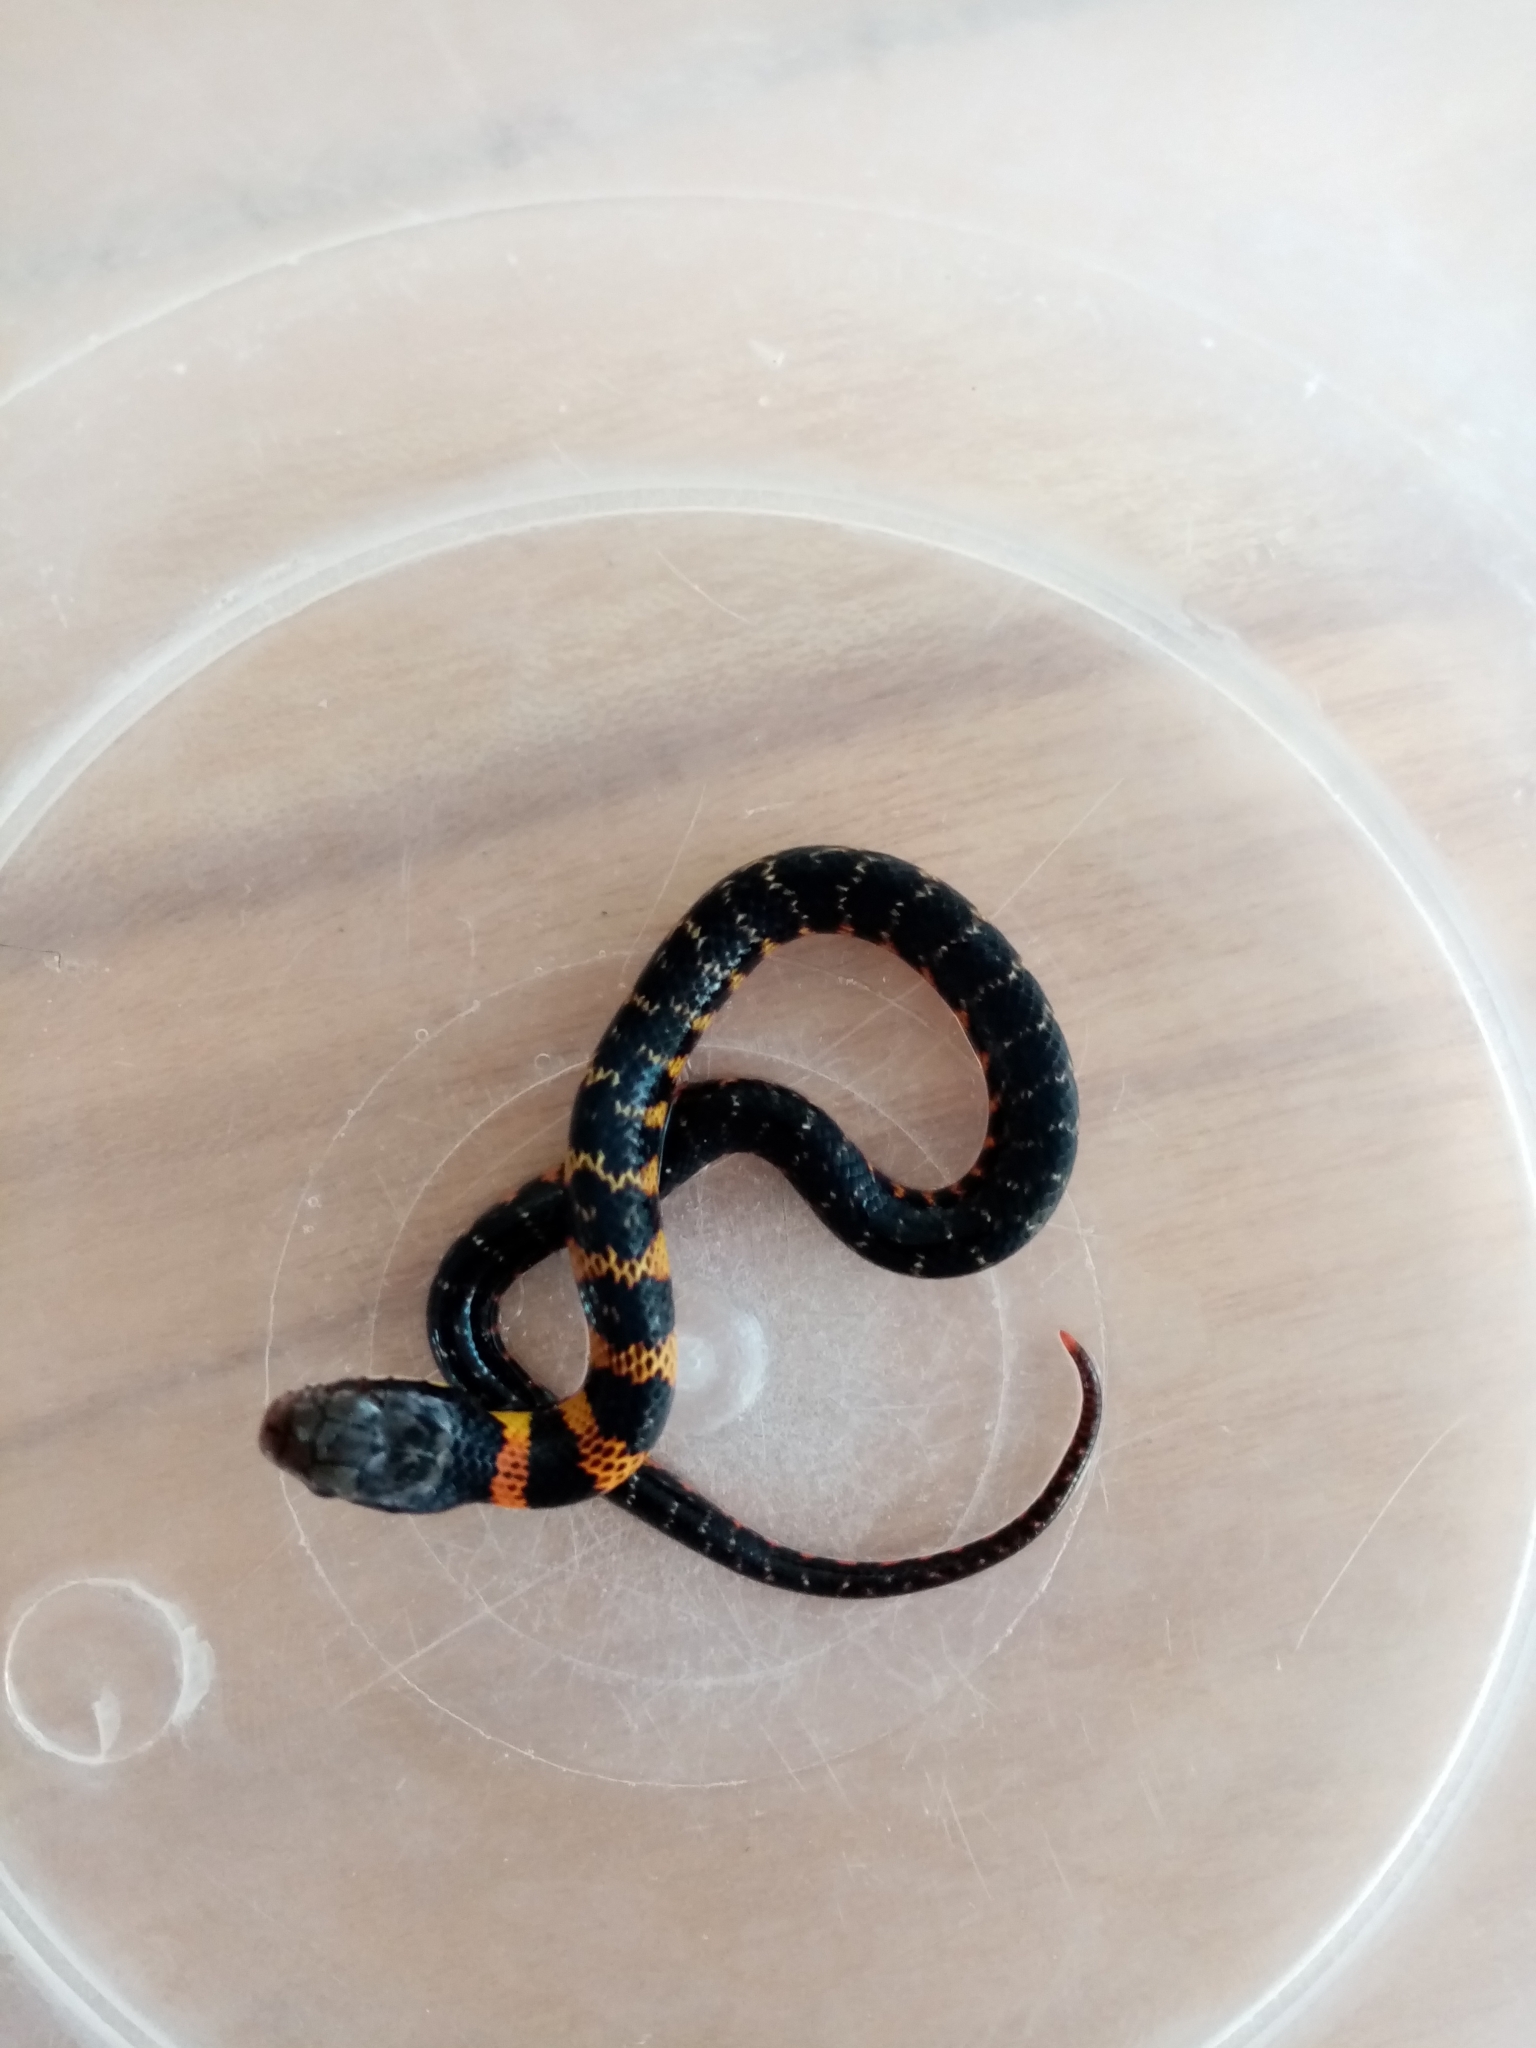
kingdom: Animalia
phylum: Chordata
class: Squamata
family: Colubridae
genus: Erythrolamprus
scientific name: Erythrolamprus epinephalus
